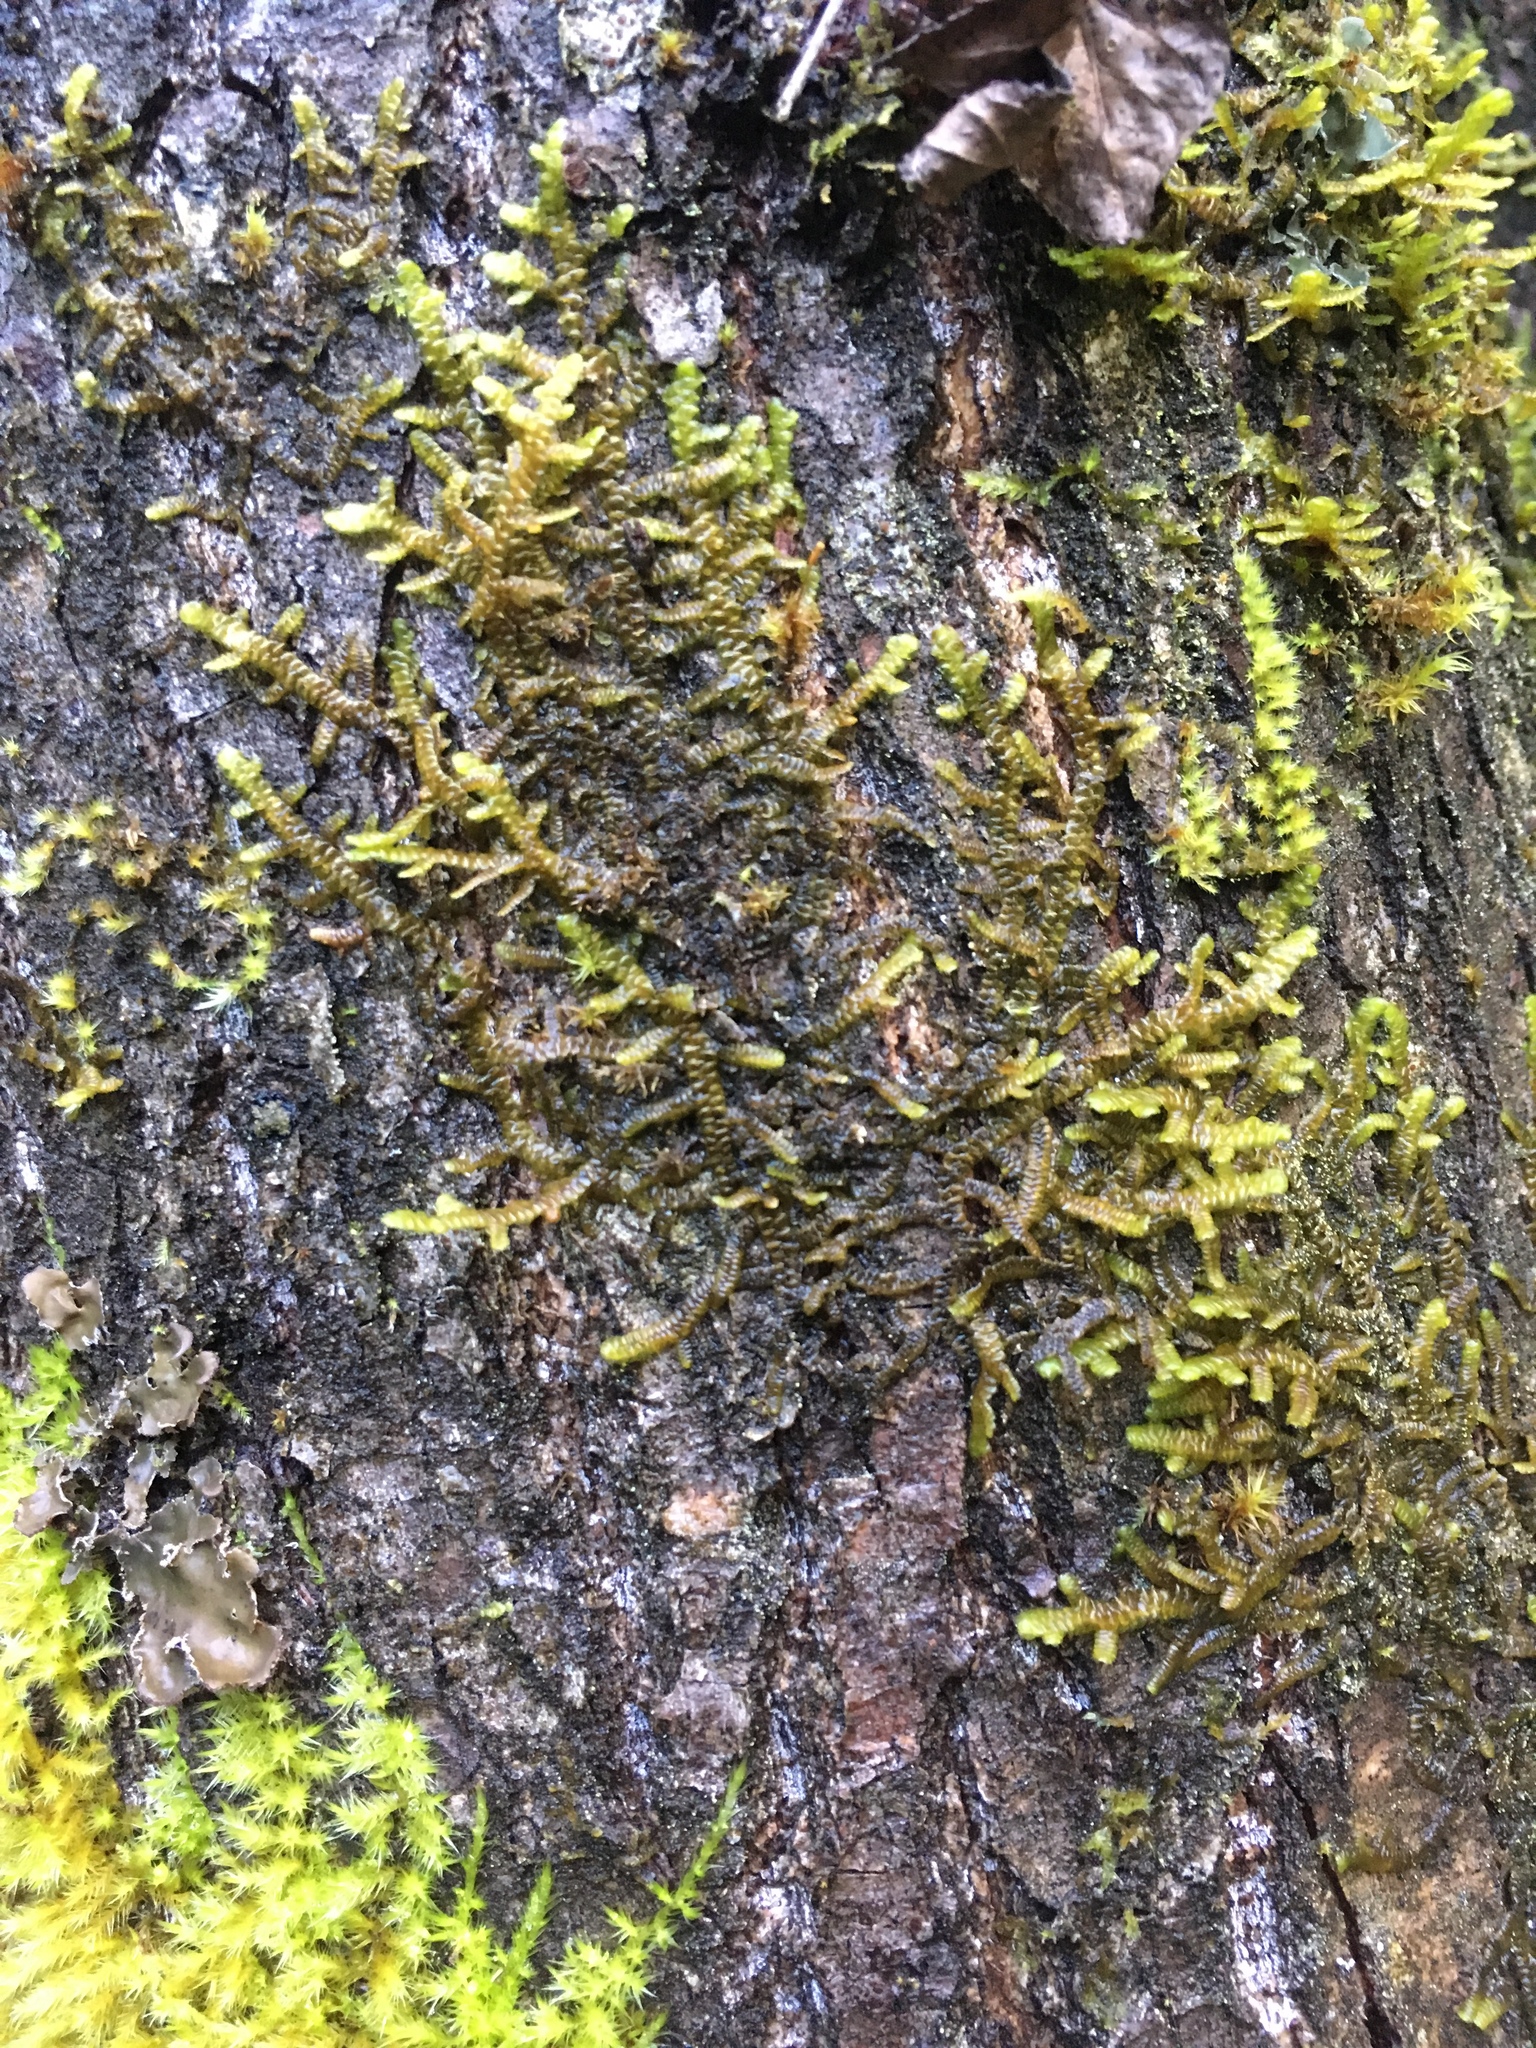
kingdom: Plantae
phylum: Marchantiophyta
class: Jungermanniopsida
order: Porellales
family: Porellaceae
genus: Porella
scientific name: Porella navicularis
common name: Tree ruffle liverwort
